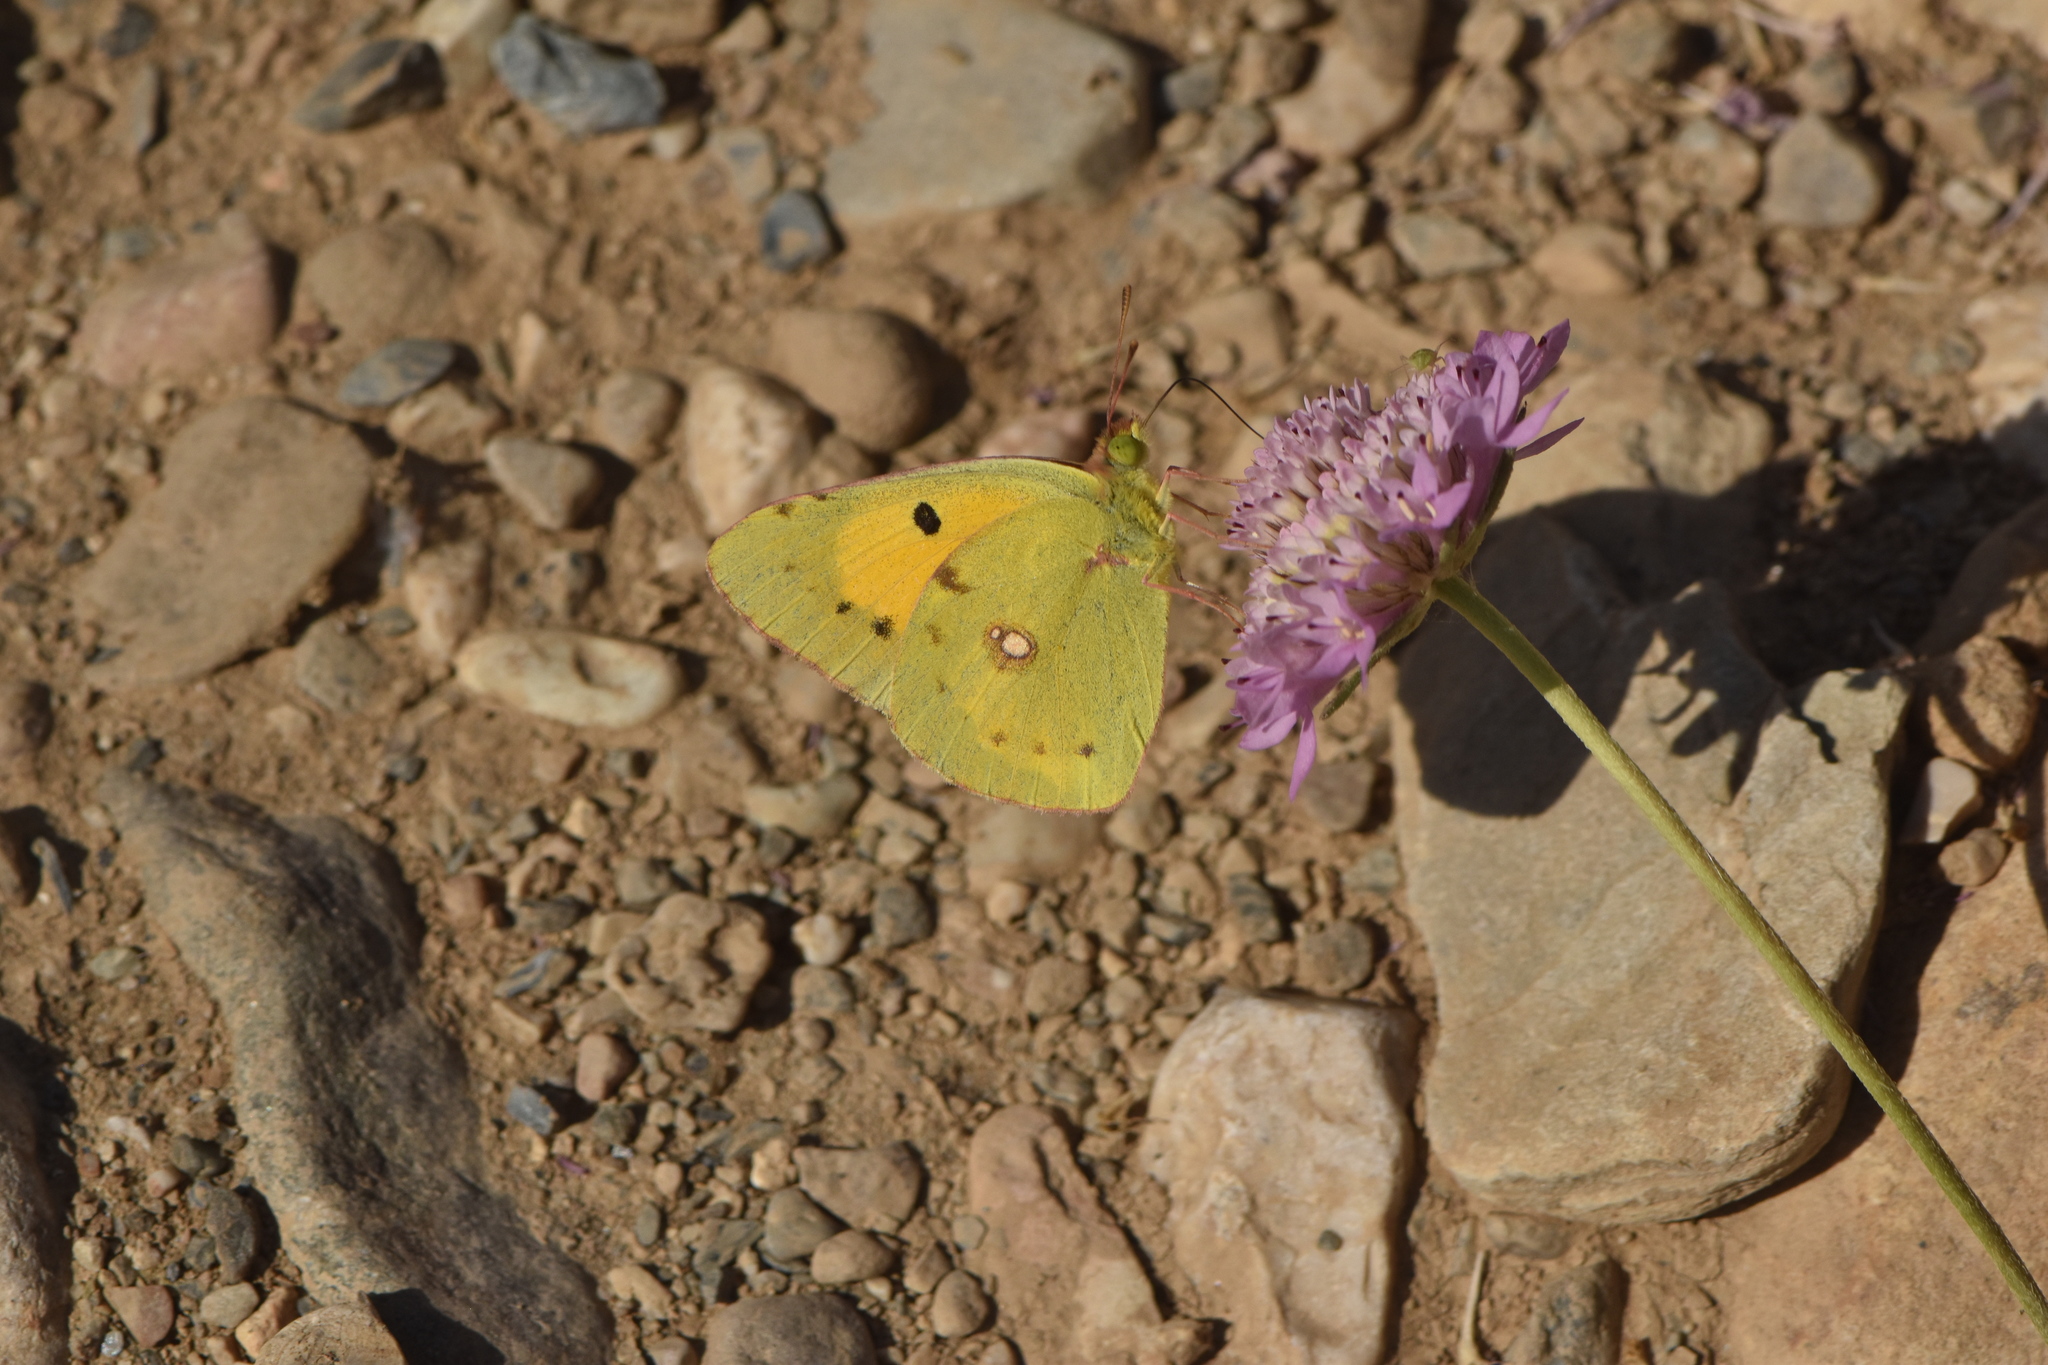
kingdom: Animalia
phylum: Arthropoda
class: Insecta
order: Lepidoptera
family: Pieridae
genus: Colias
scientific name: Colias croceus
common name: Clouded yellow
